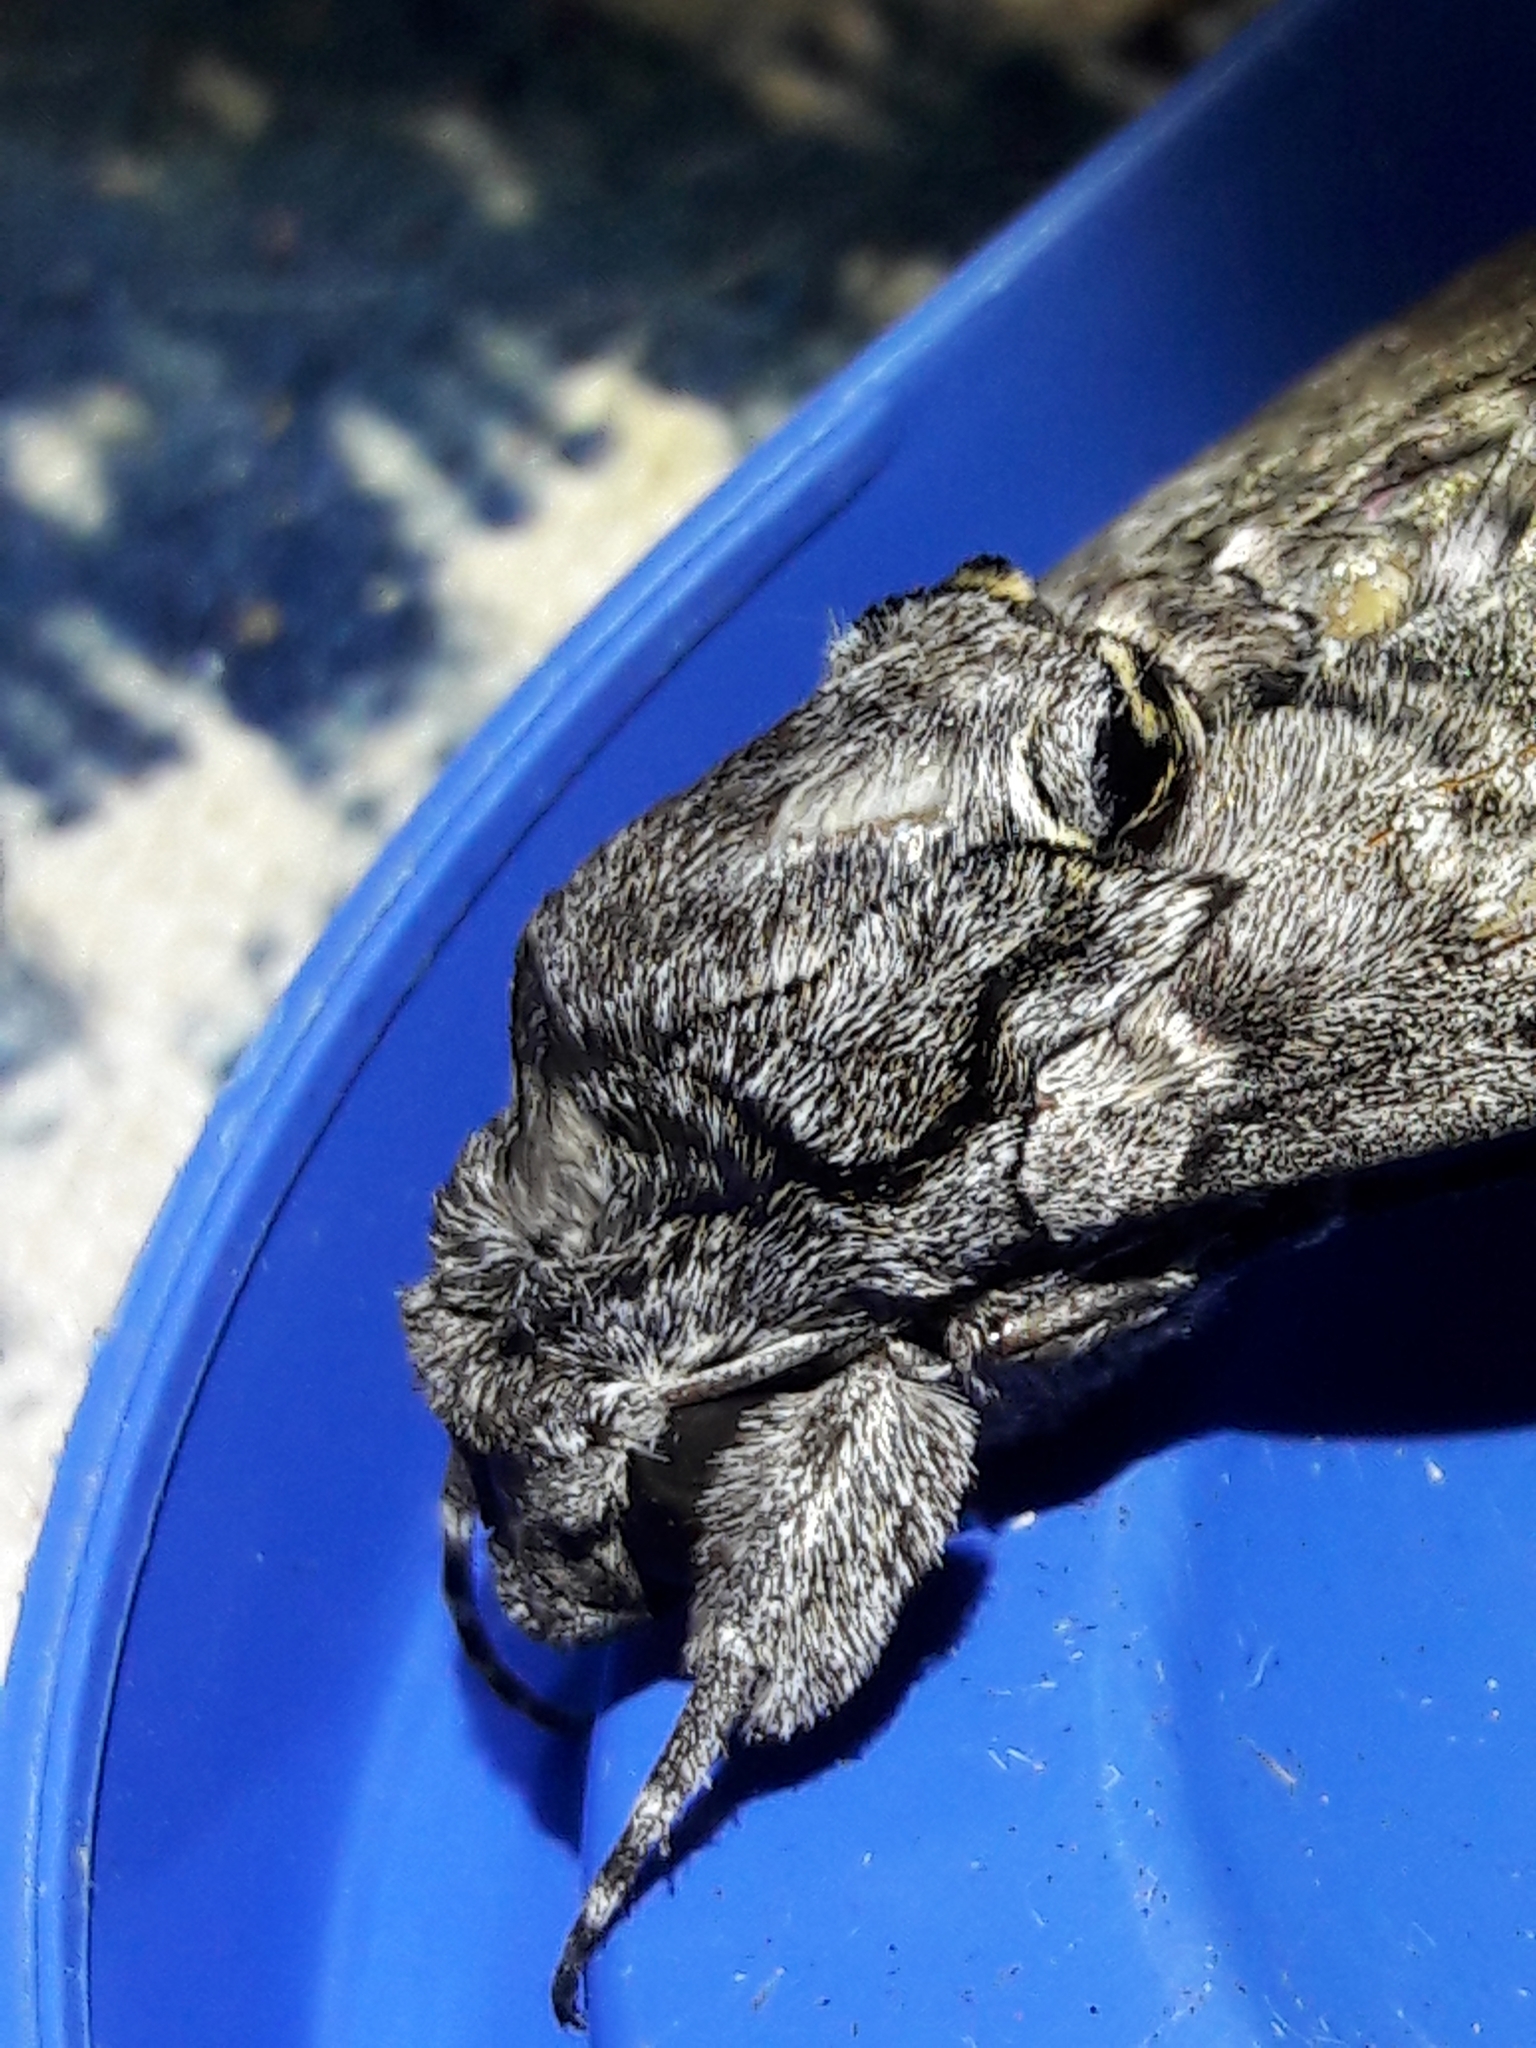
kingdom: Animalia
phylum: Arthropoda
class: Insecta
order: Lepidoptera
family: Sphingidae
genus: Agrius
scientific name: Agrius cingulata
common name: Pink-spotted hawkmoth
